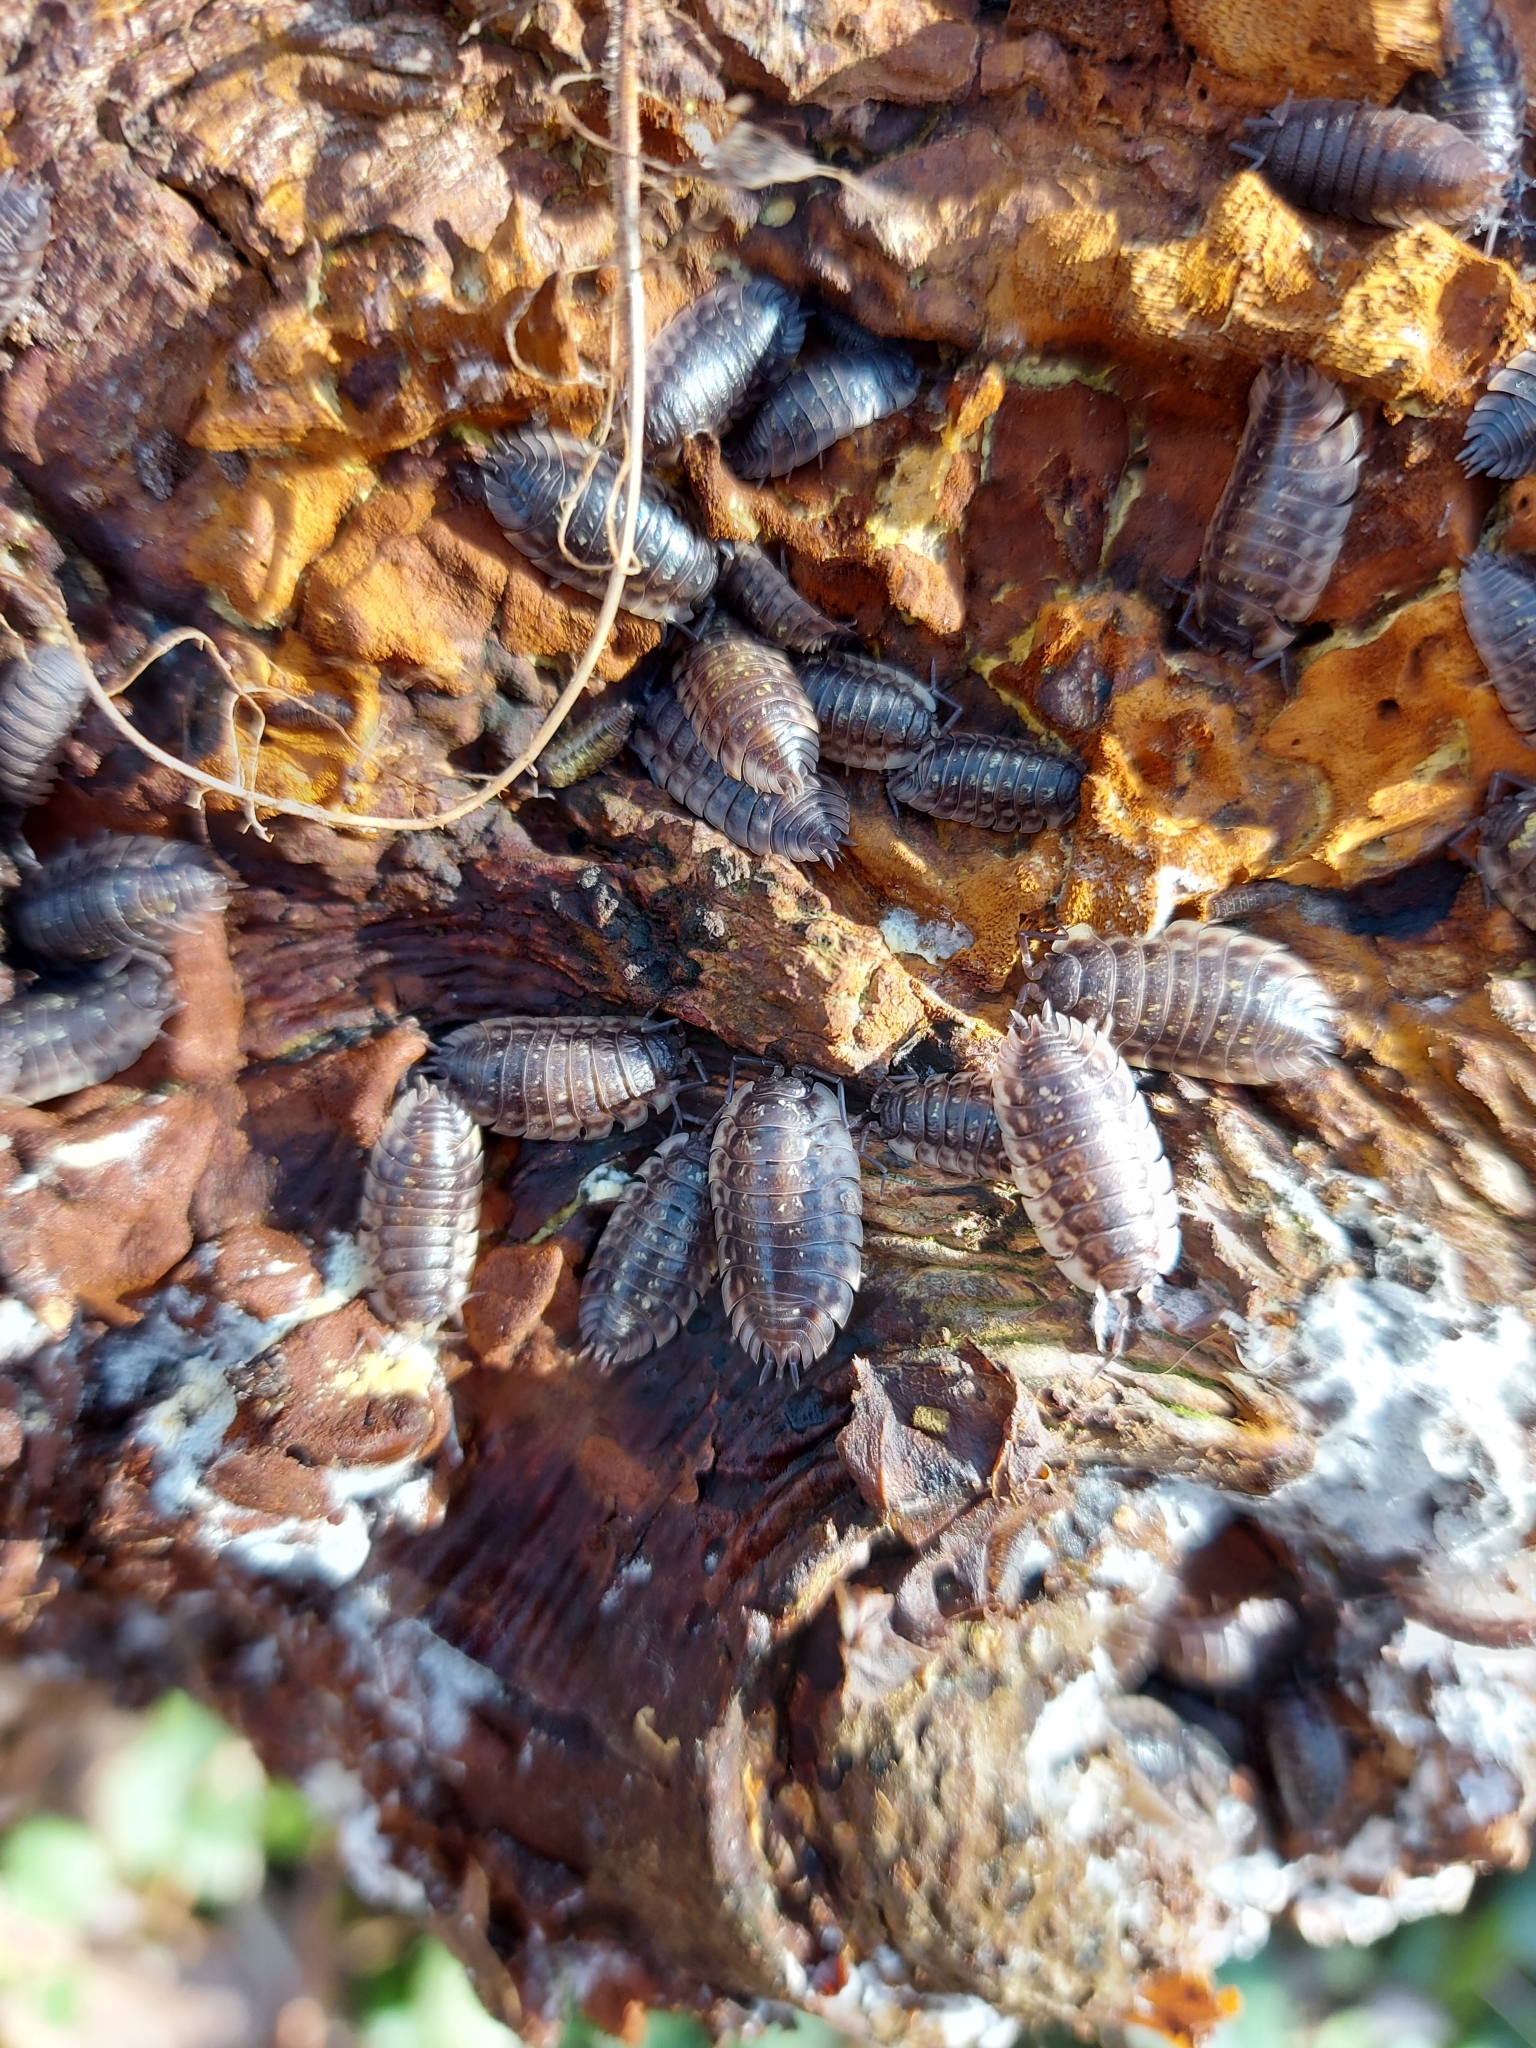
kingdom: Animalia
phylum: Arthropoda
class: Malacostraca
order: Isopoda
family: Oniscidae
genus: Oniscus
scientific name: Oniscus asellus
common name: Common shiny woodlouse
